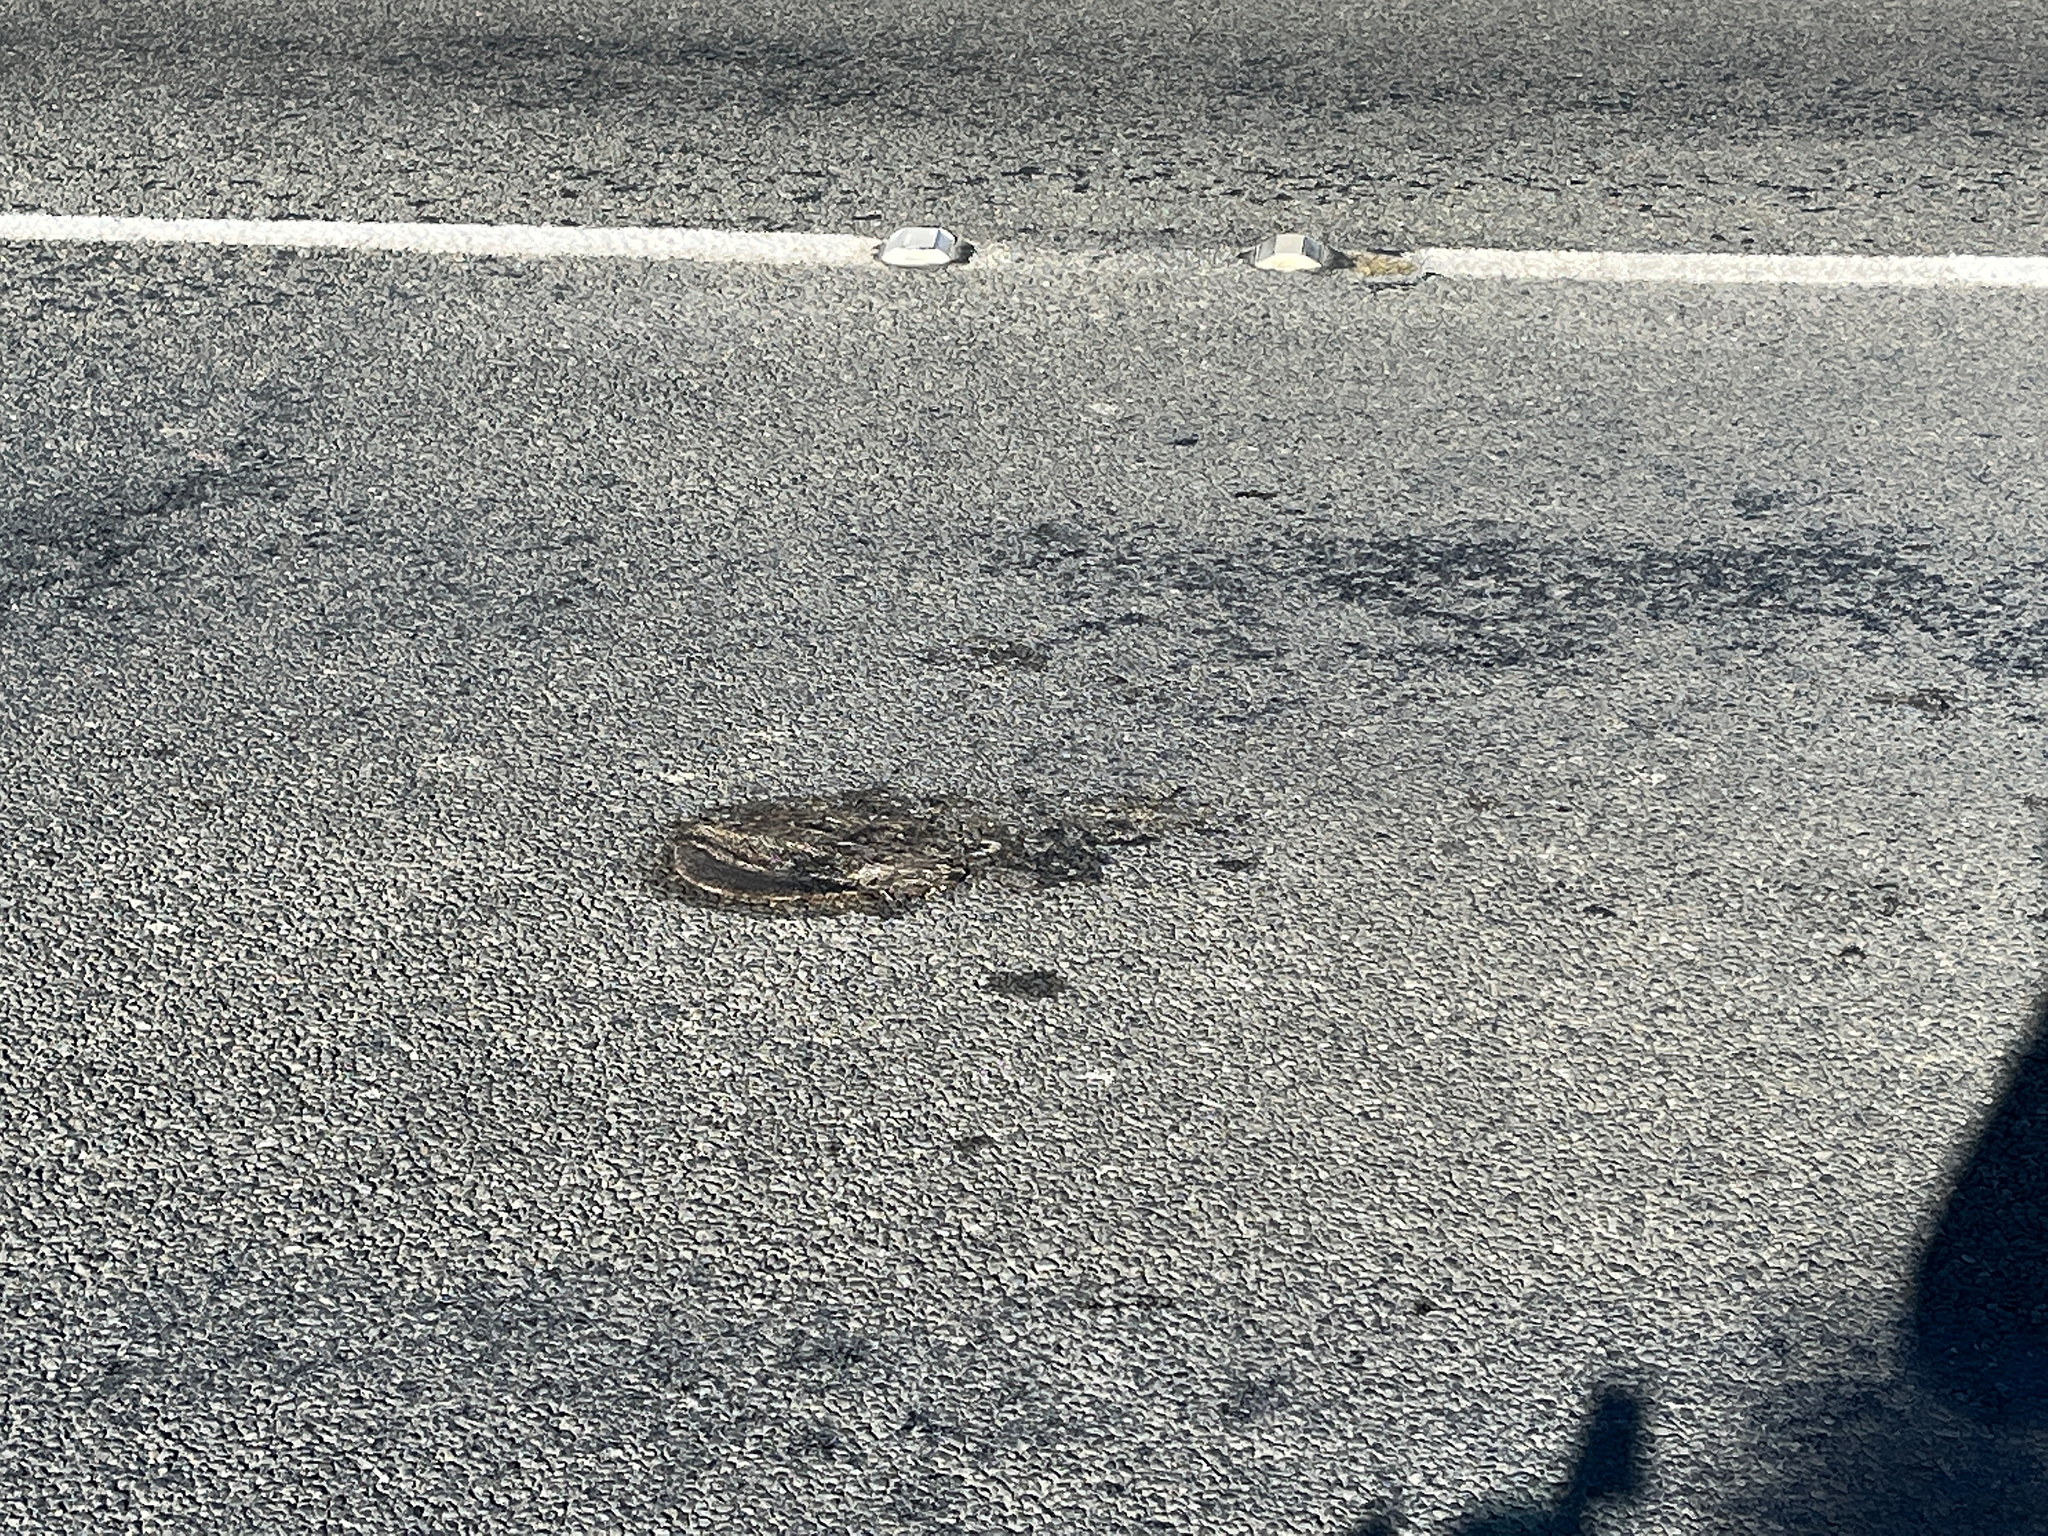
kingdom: Animalia
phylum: Chordata
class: Mammalia
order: Erinaceomorpha
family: Erinaceidae
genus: Erinaceus
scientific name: Erinaceus europaeus
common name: West european hedgehog
